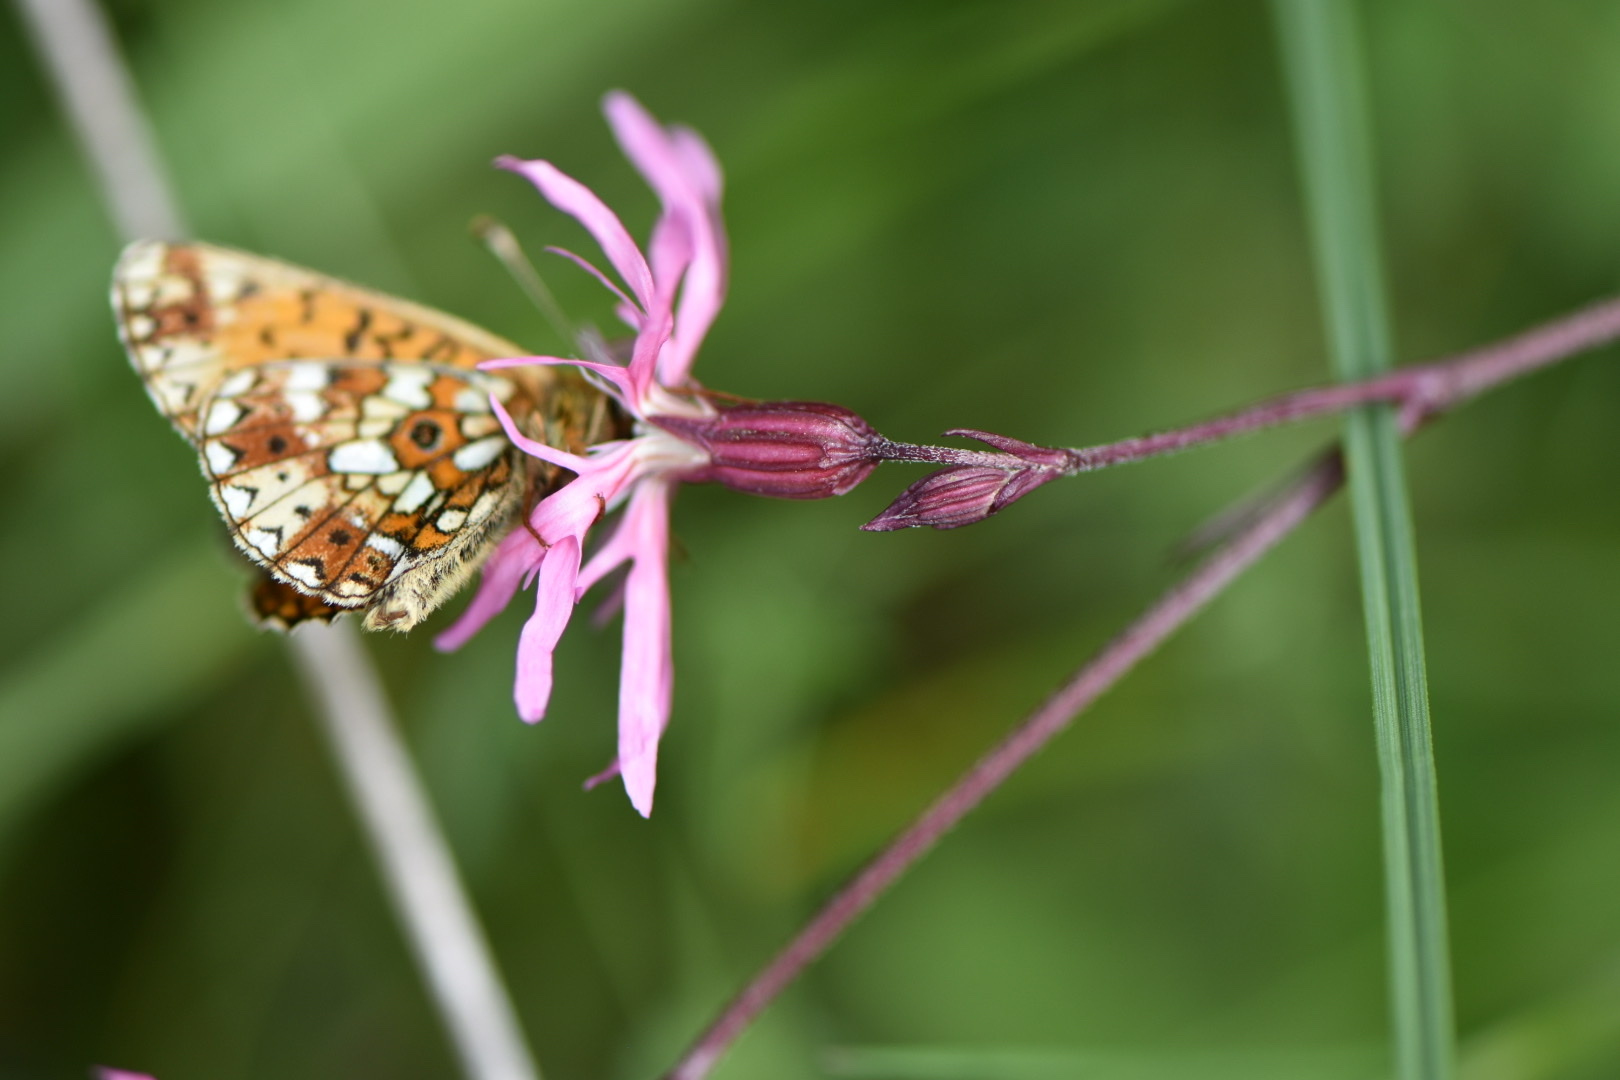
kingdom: Animalia
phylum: Arthropoda
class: Insecta
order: Lepidoptera
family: Nymphalidae
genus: Boloria
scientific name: Boloria selene
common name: Small pearl-bordered fritillary
